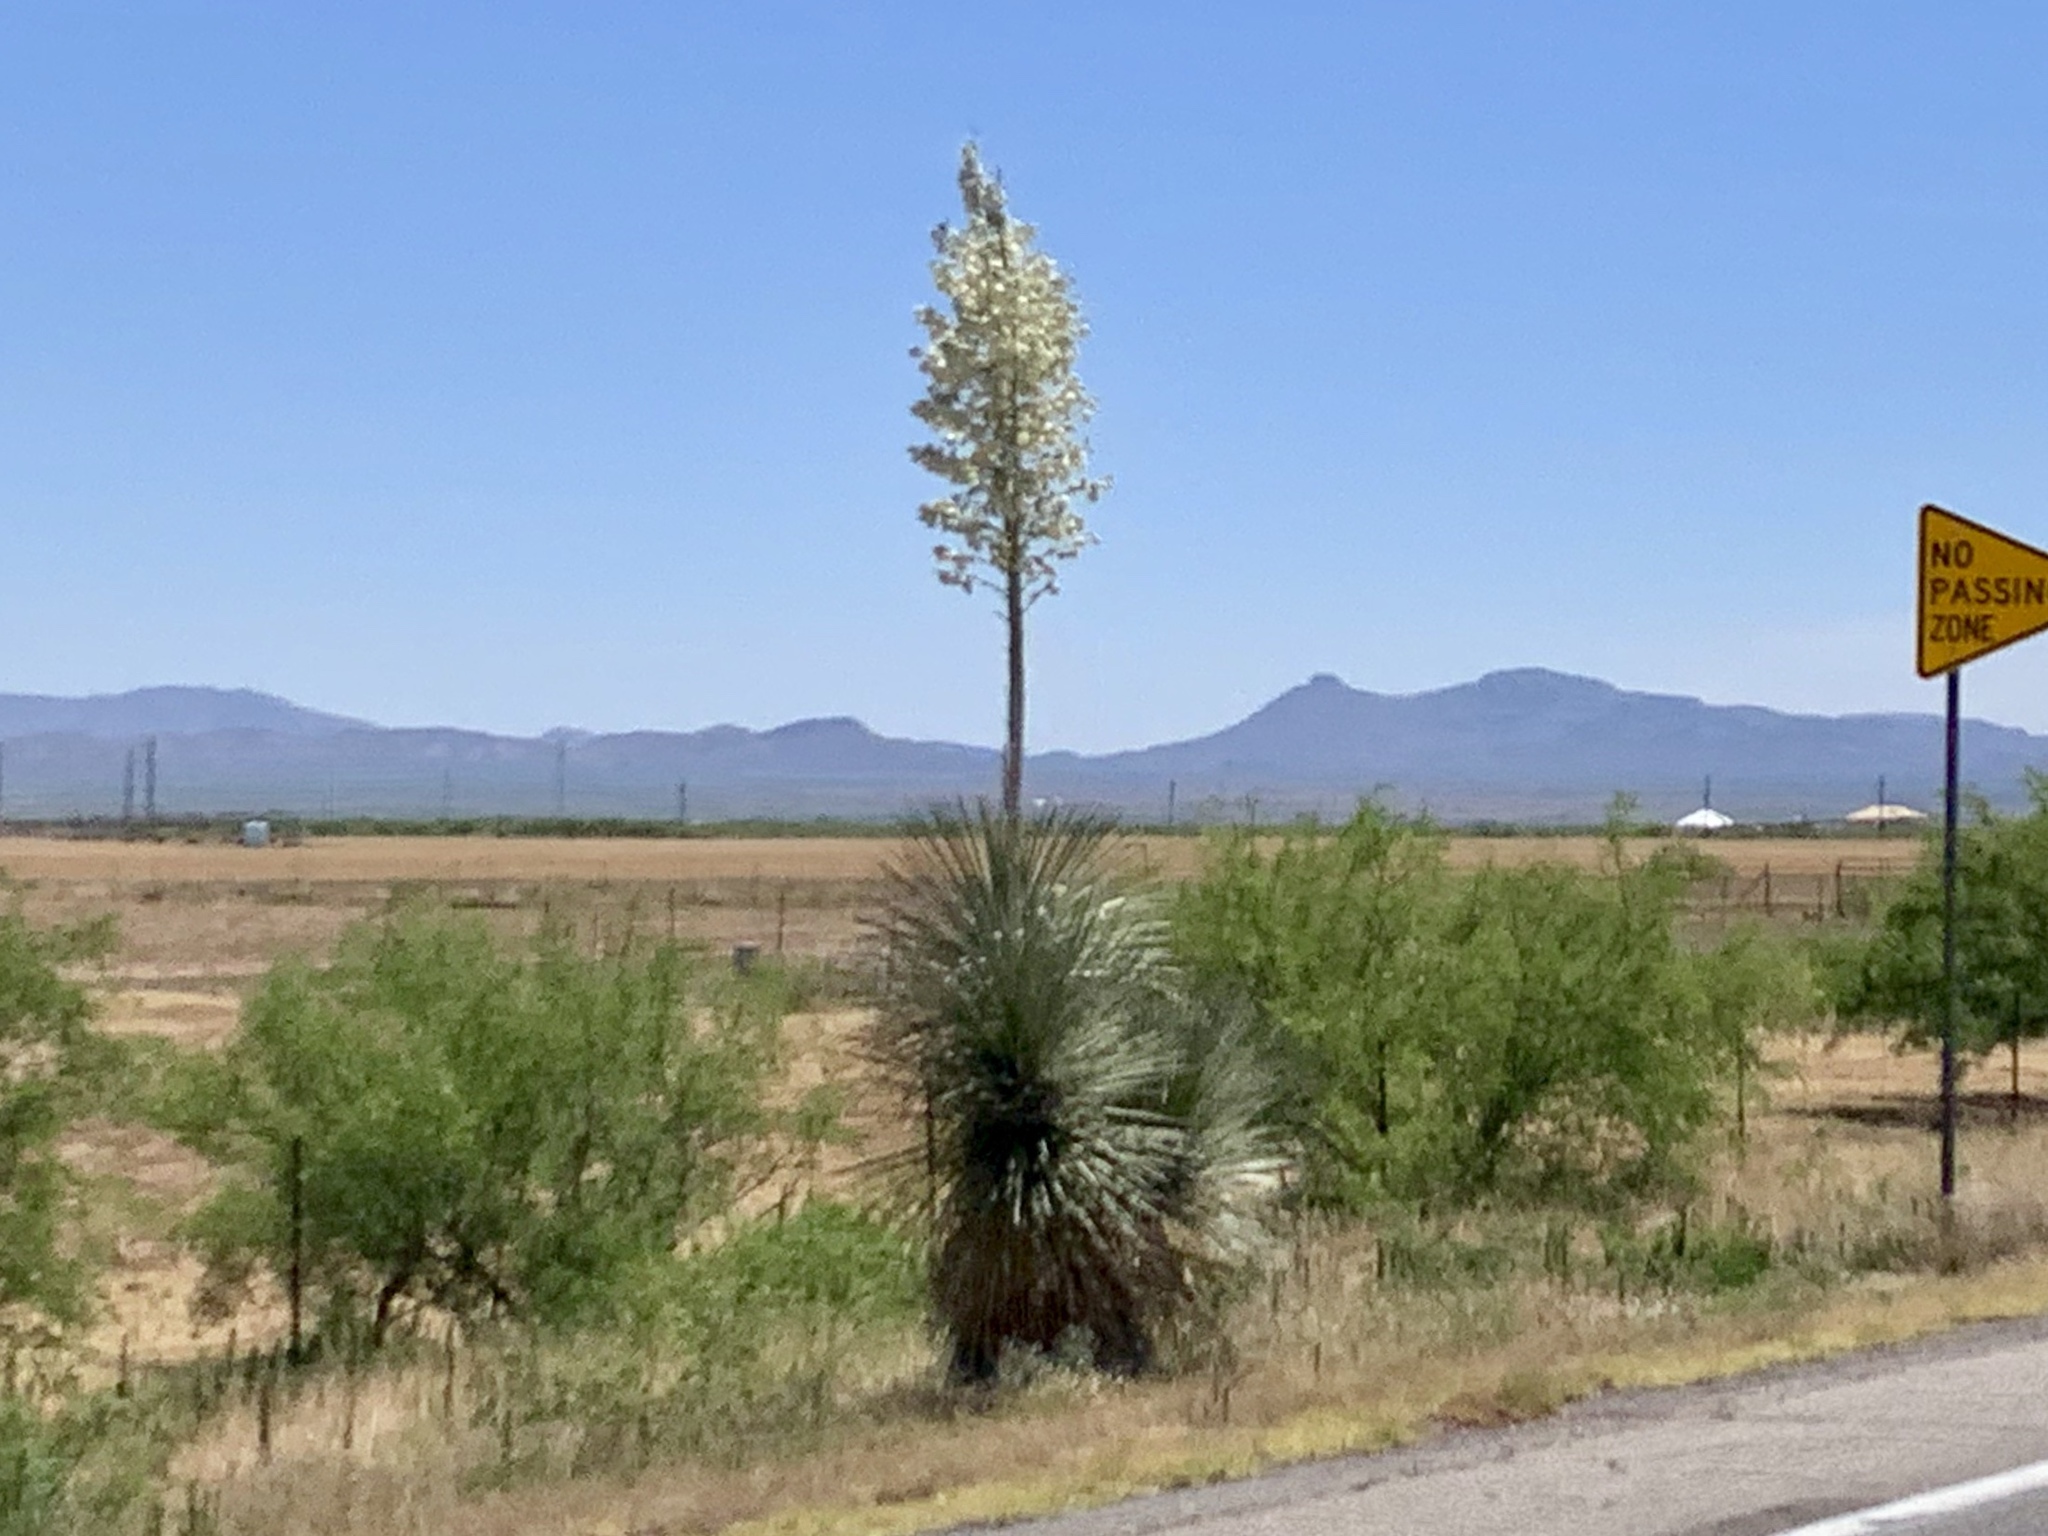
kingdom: Plantae
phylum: Tracheophyta
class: Liliopsida
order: Asparagales
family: Asparagaceae
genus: Yucca
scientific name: Yucca elata
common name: Palmella
